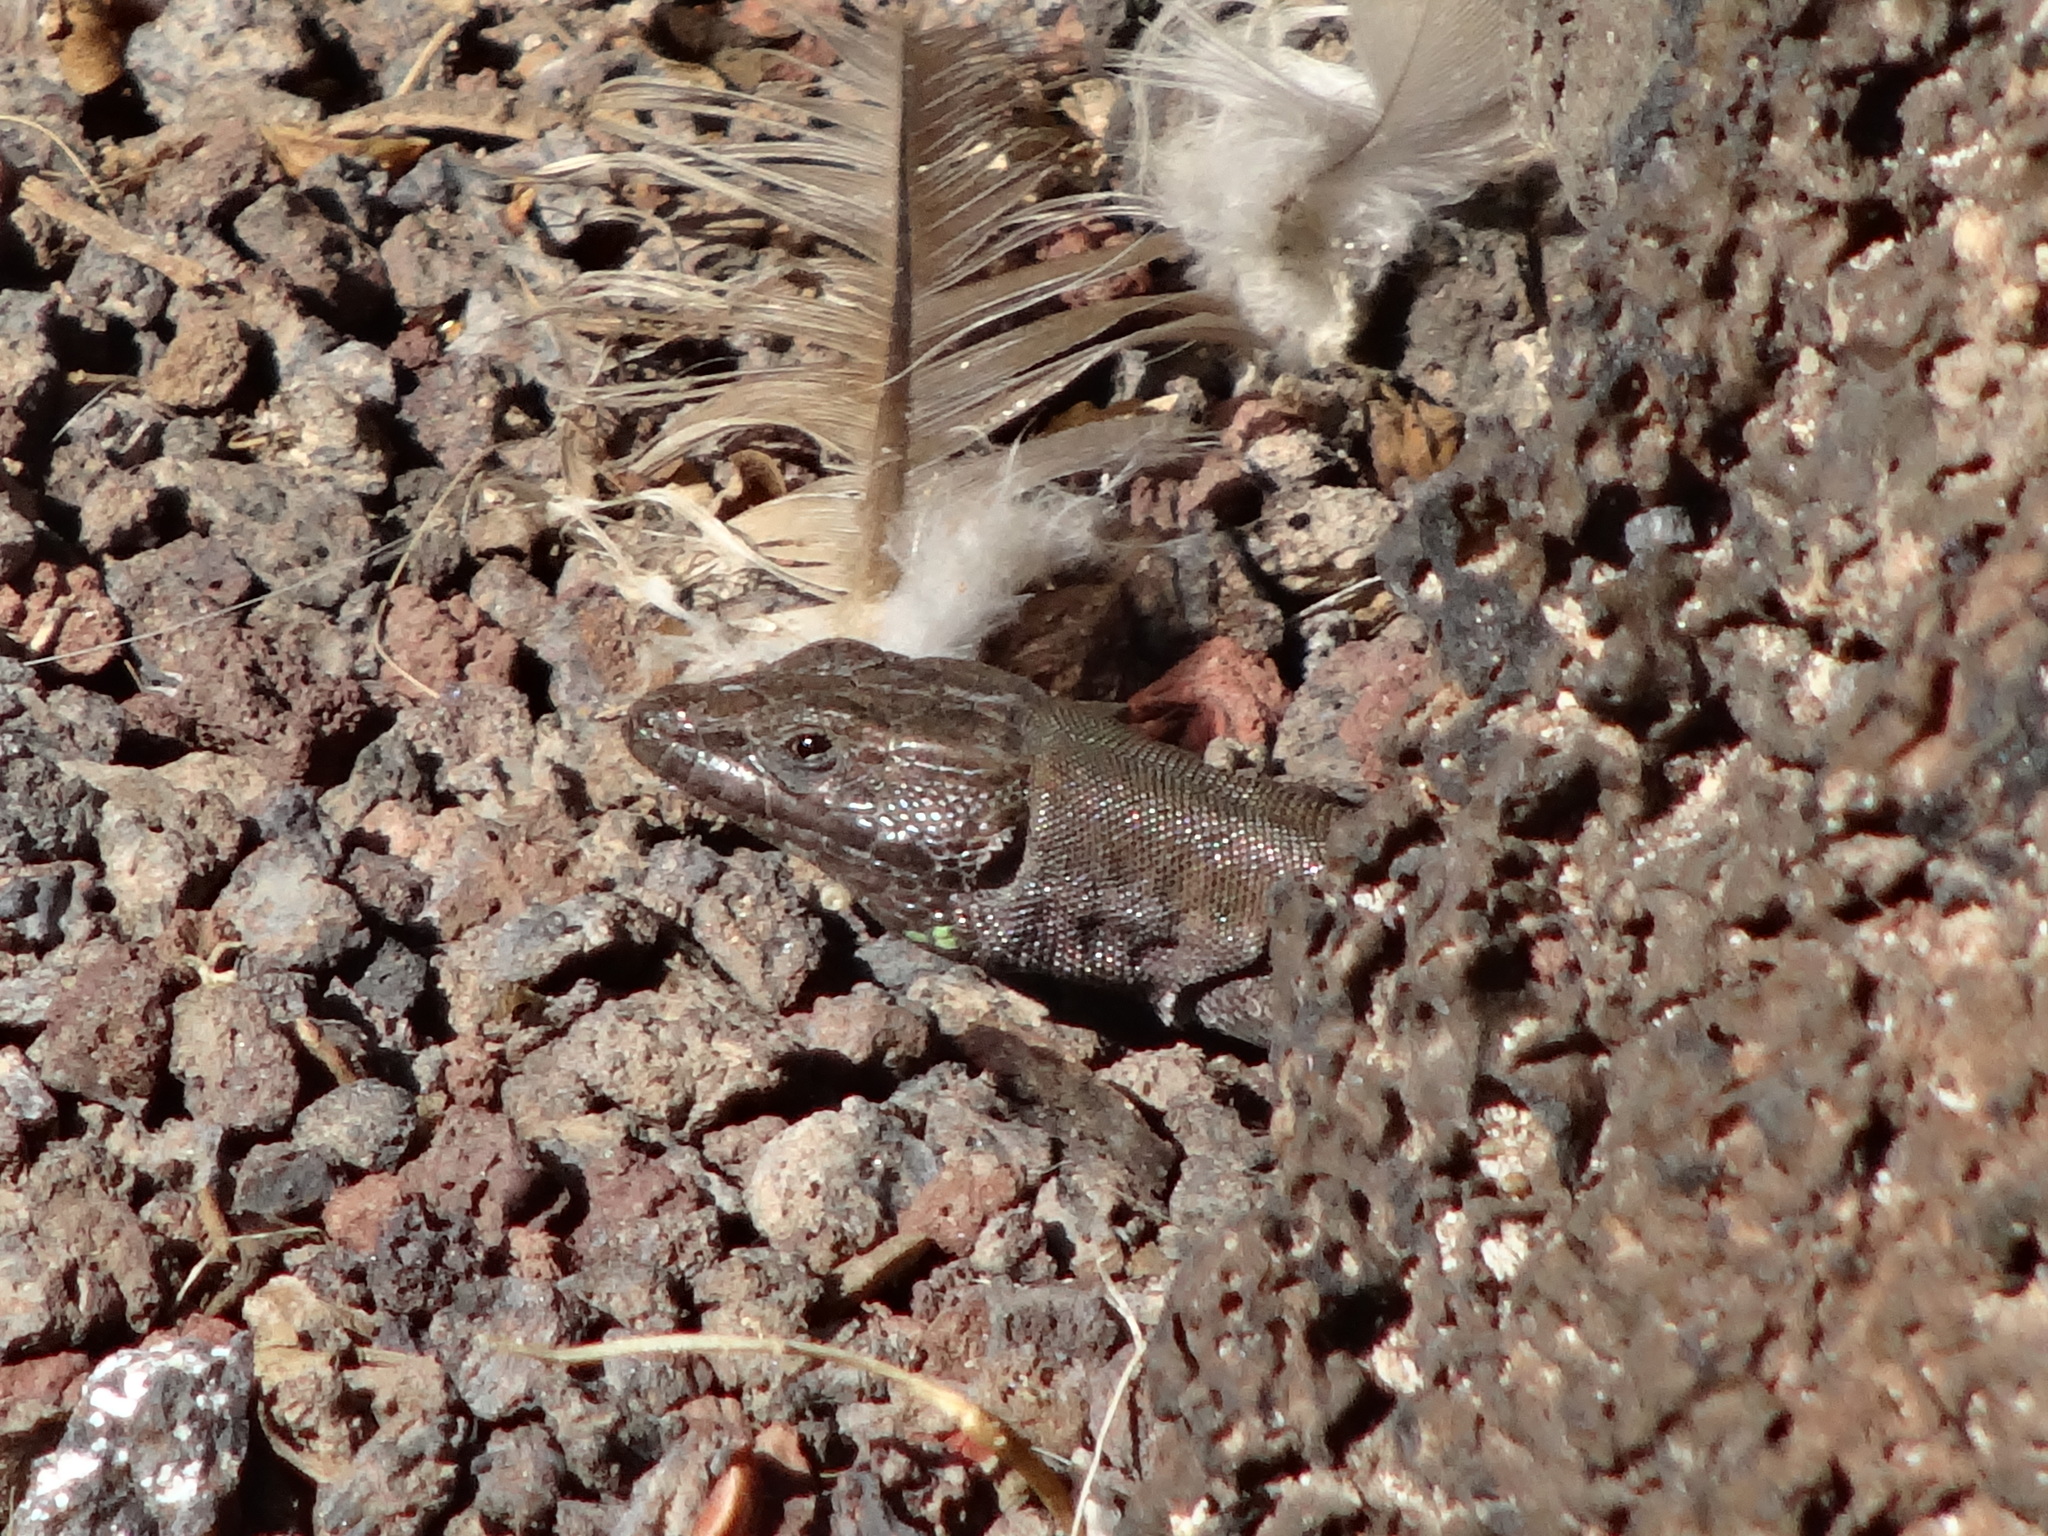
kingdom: Animalia
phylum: Chordata
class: Squamata
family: Lacertidae
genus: Gallotia
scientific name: Gallotia atlantica
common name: Atlantic lizard
